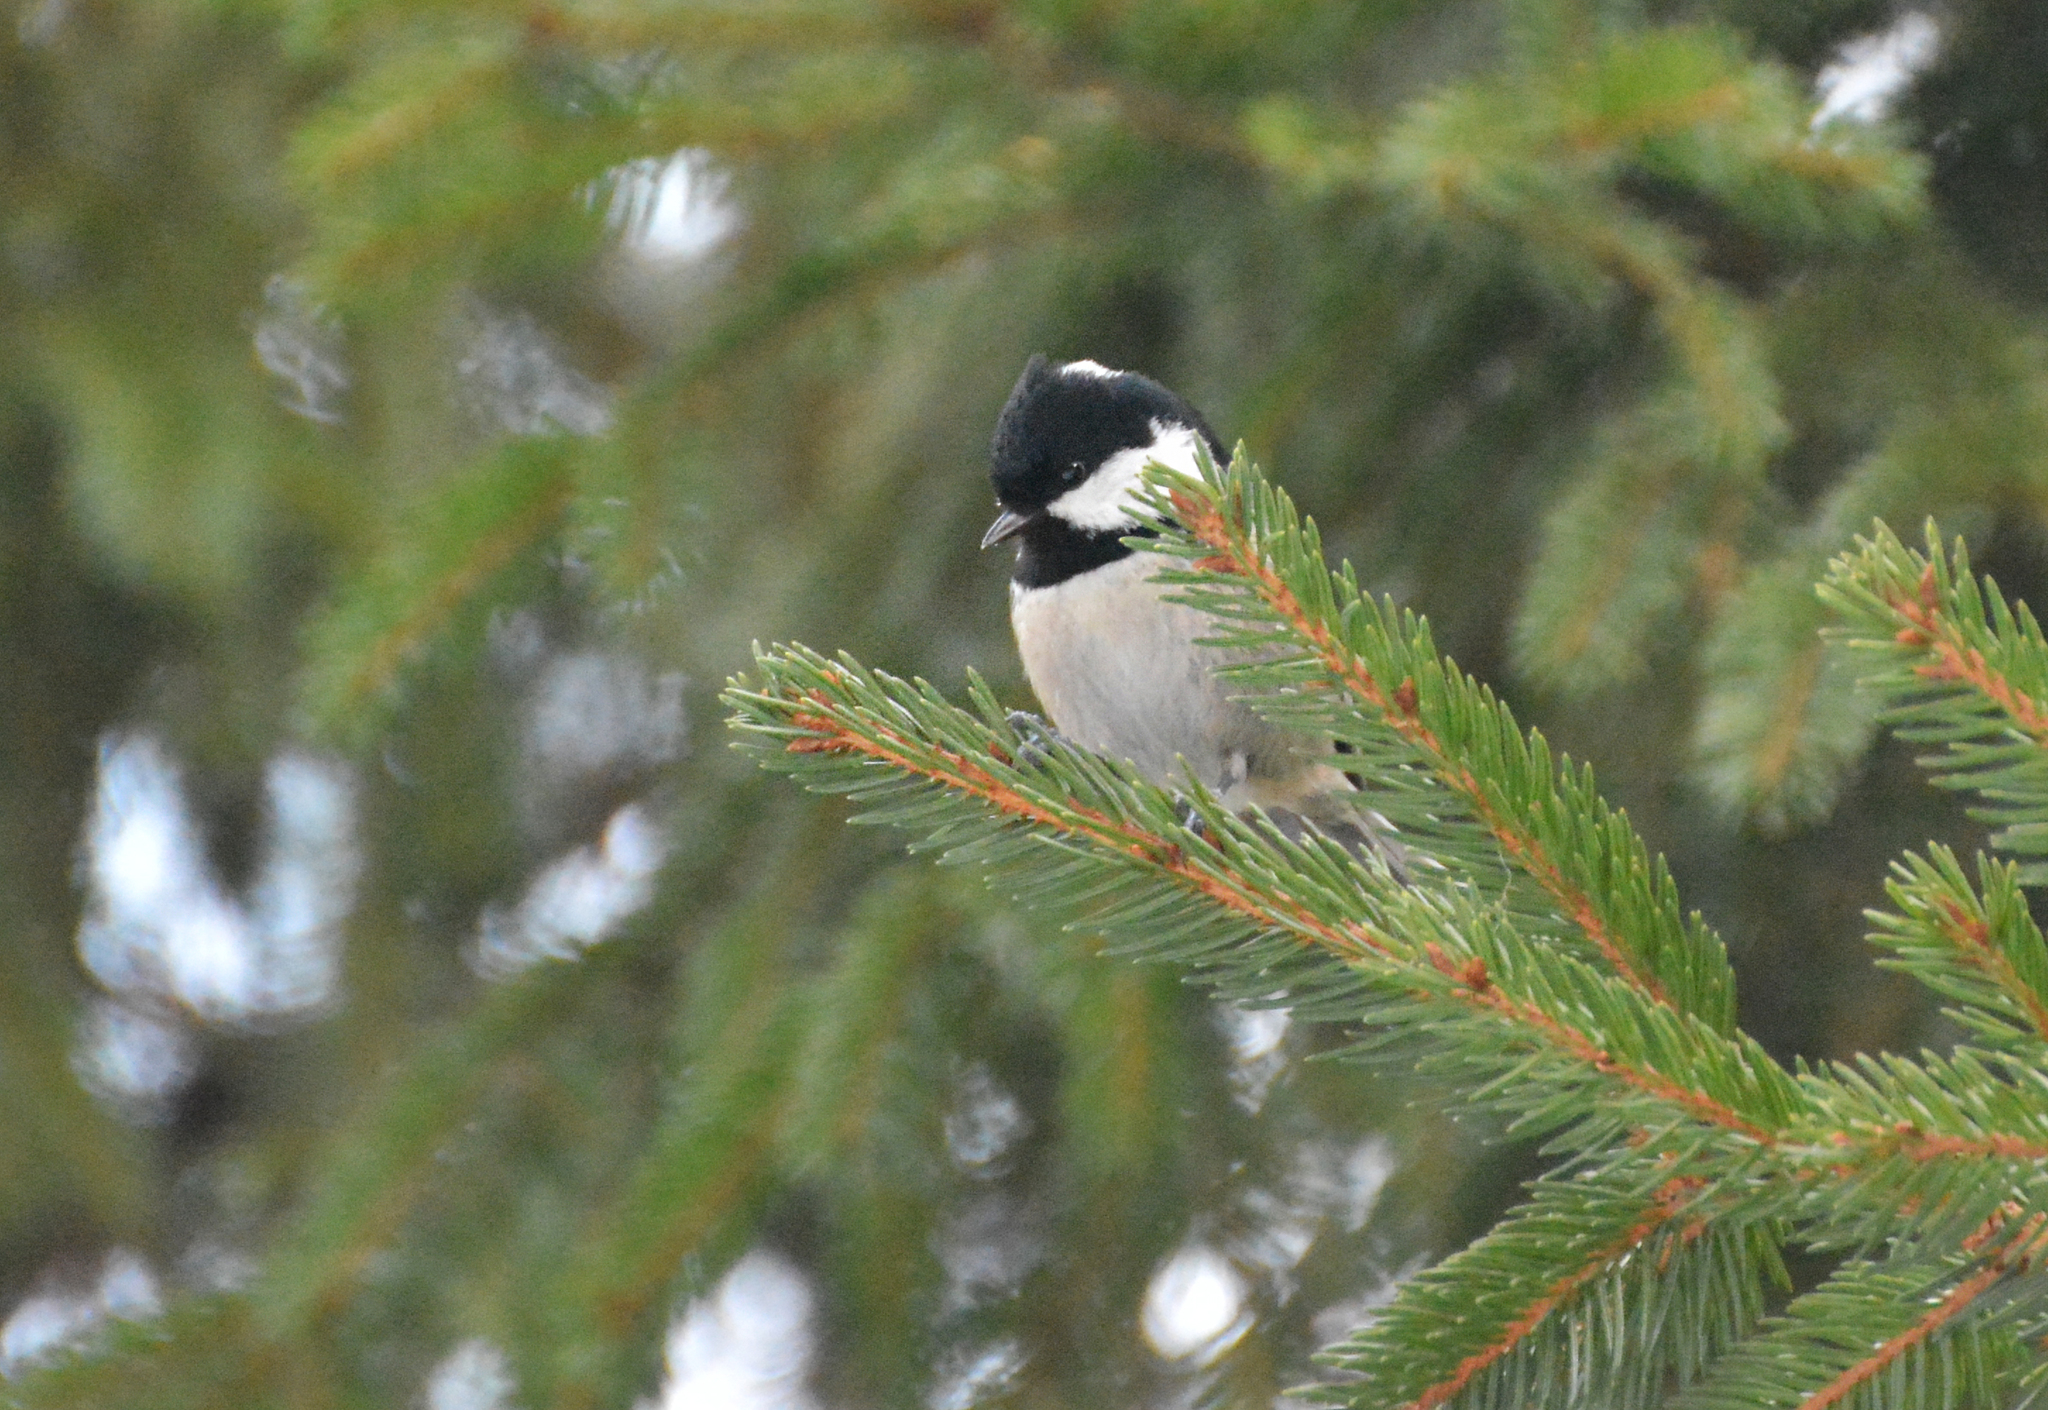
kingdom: Animalia
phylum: Chordata
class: Aves
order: Passeriformes
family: Paridae
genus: Periparus
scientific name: Periparus ater
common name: Coal tit
